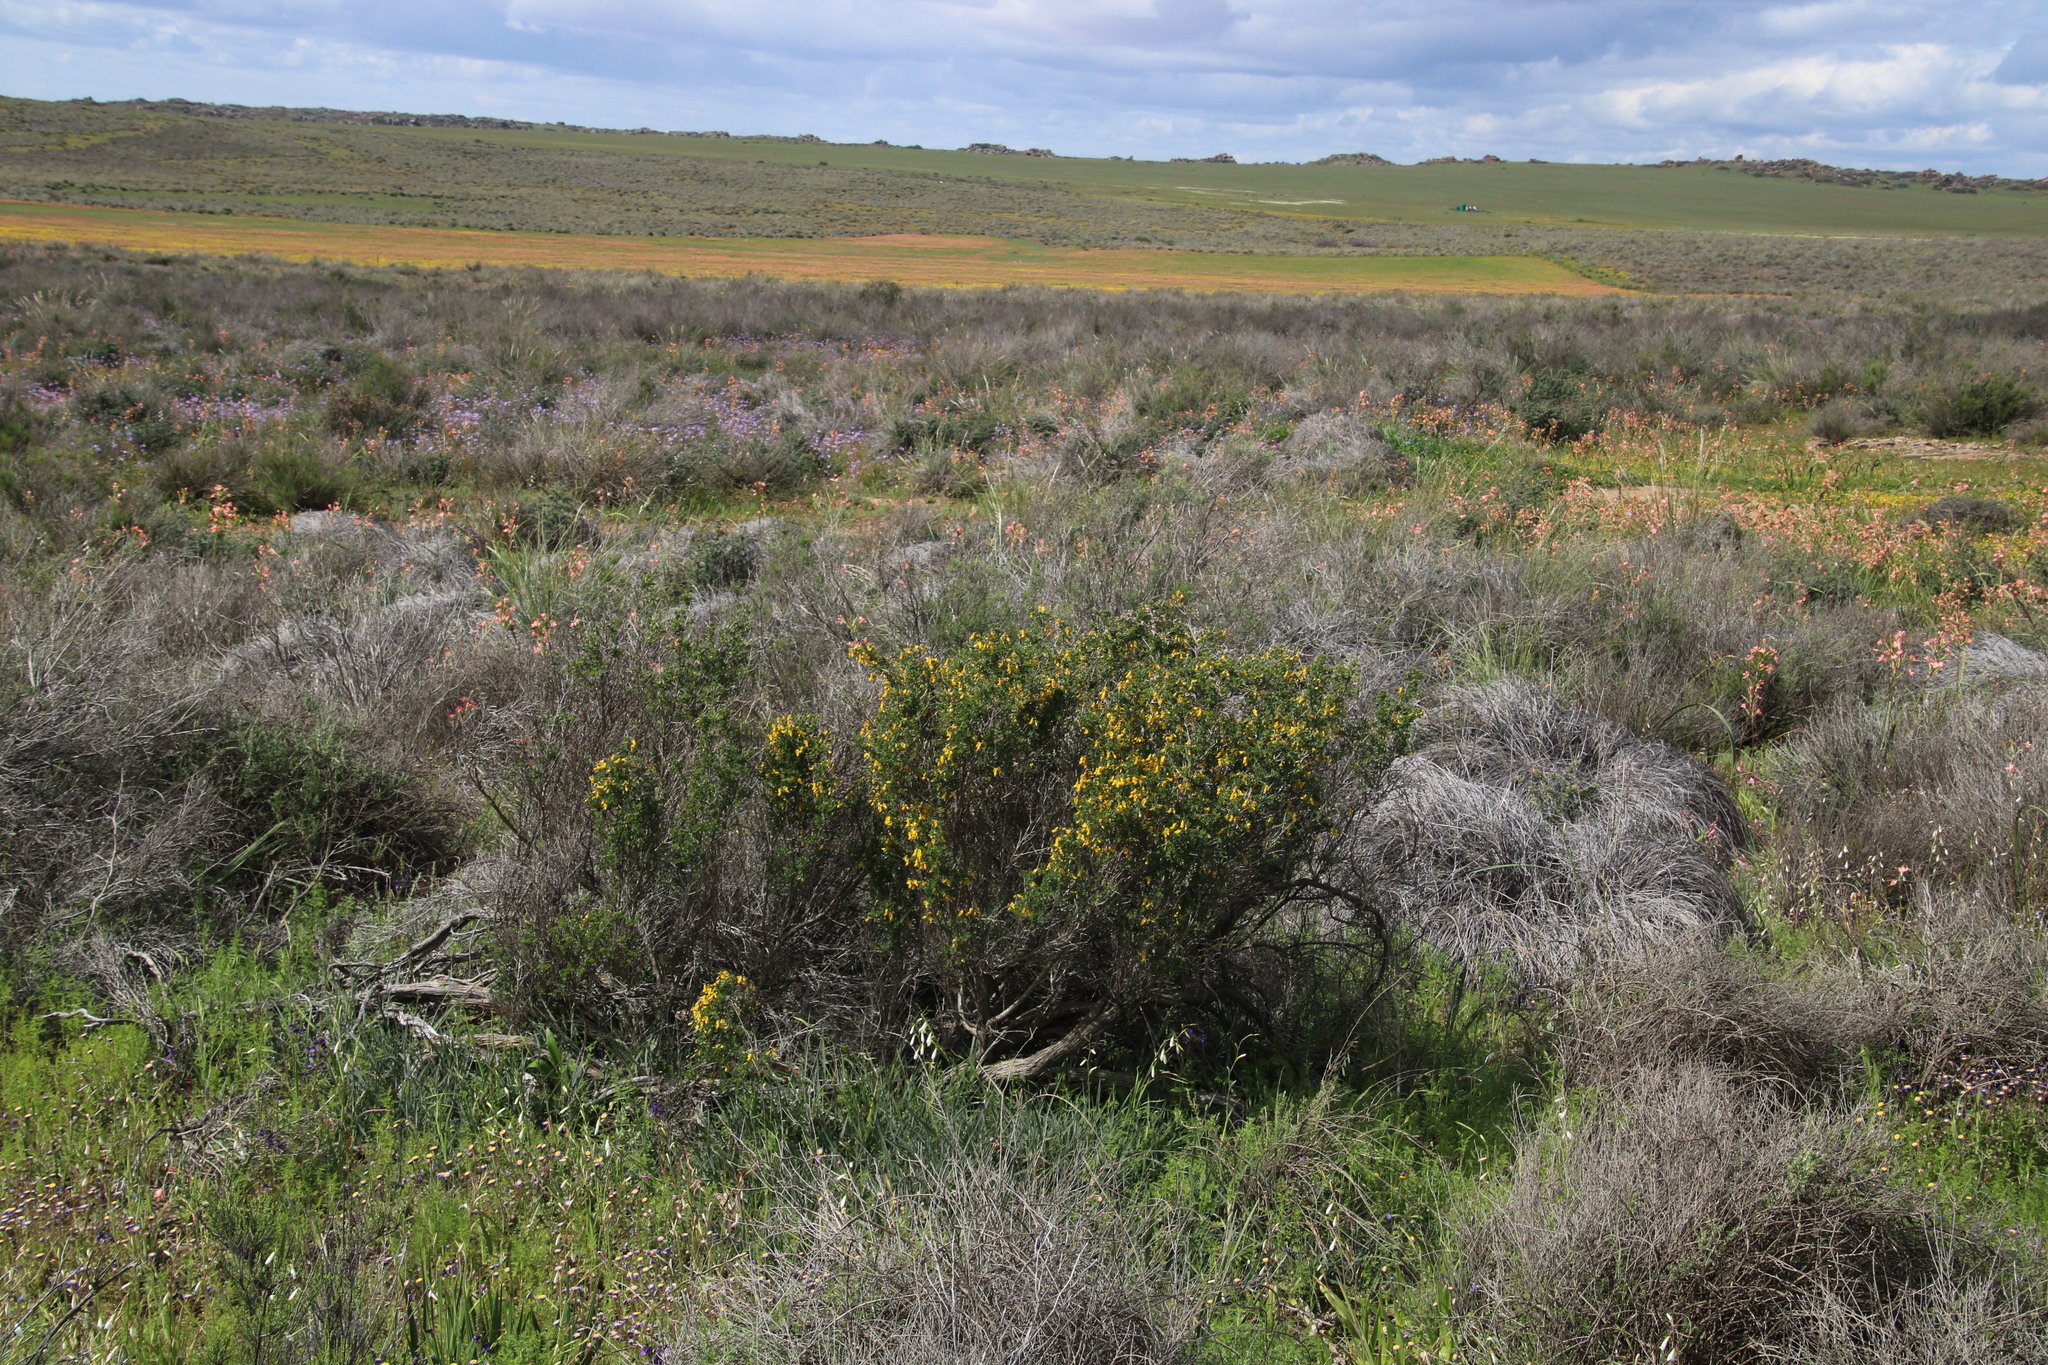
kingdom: Plantae
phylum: Tracheophyta
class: Magnoliopsida
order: Fabales
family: Fabaceae
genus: Wiborgiella
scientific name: Wiborgiella leipoldtiana
